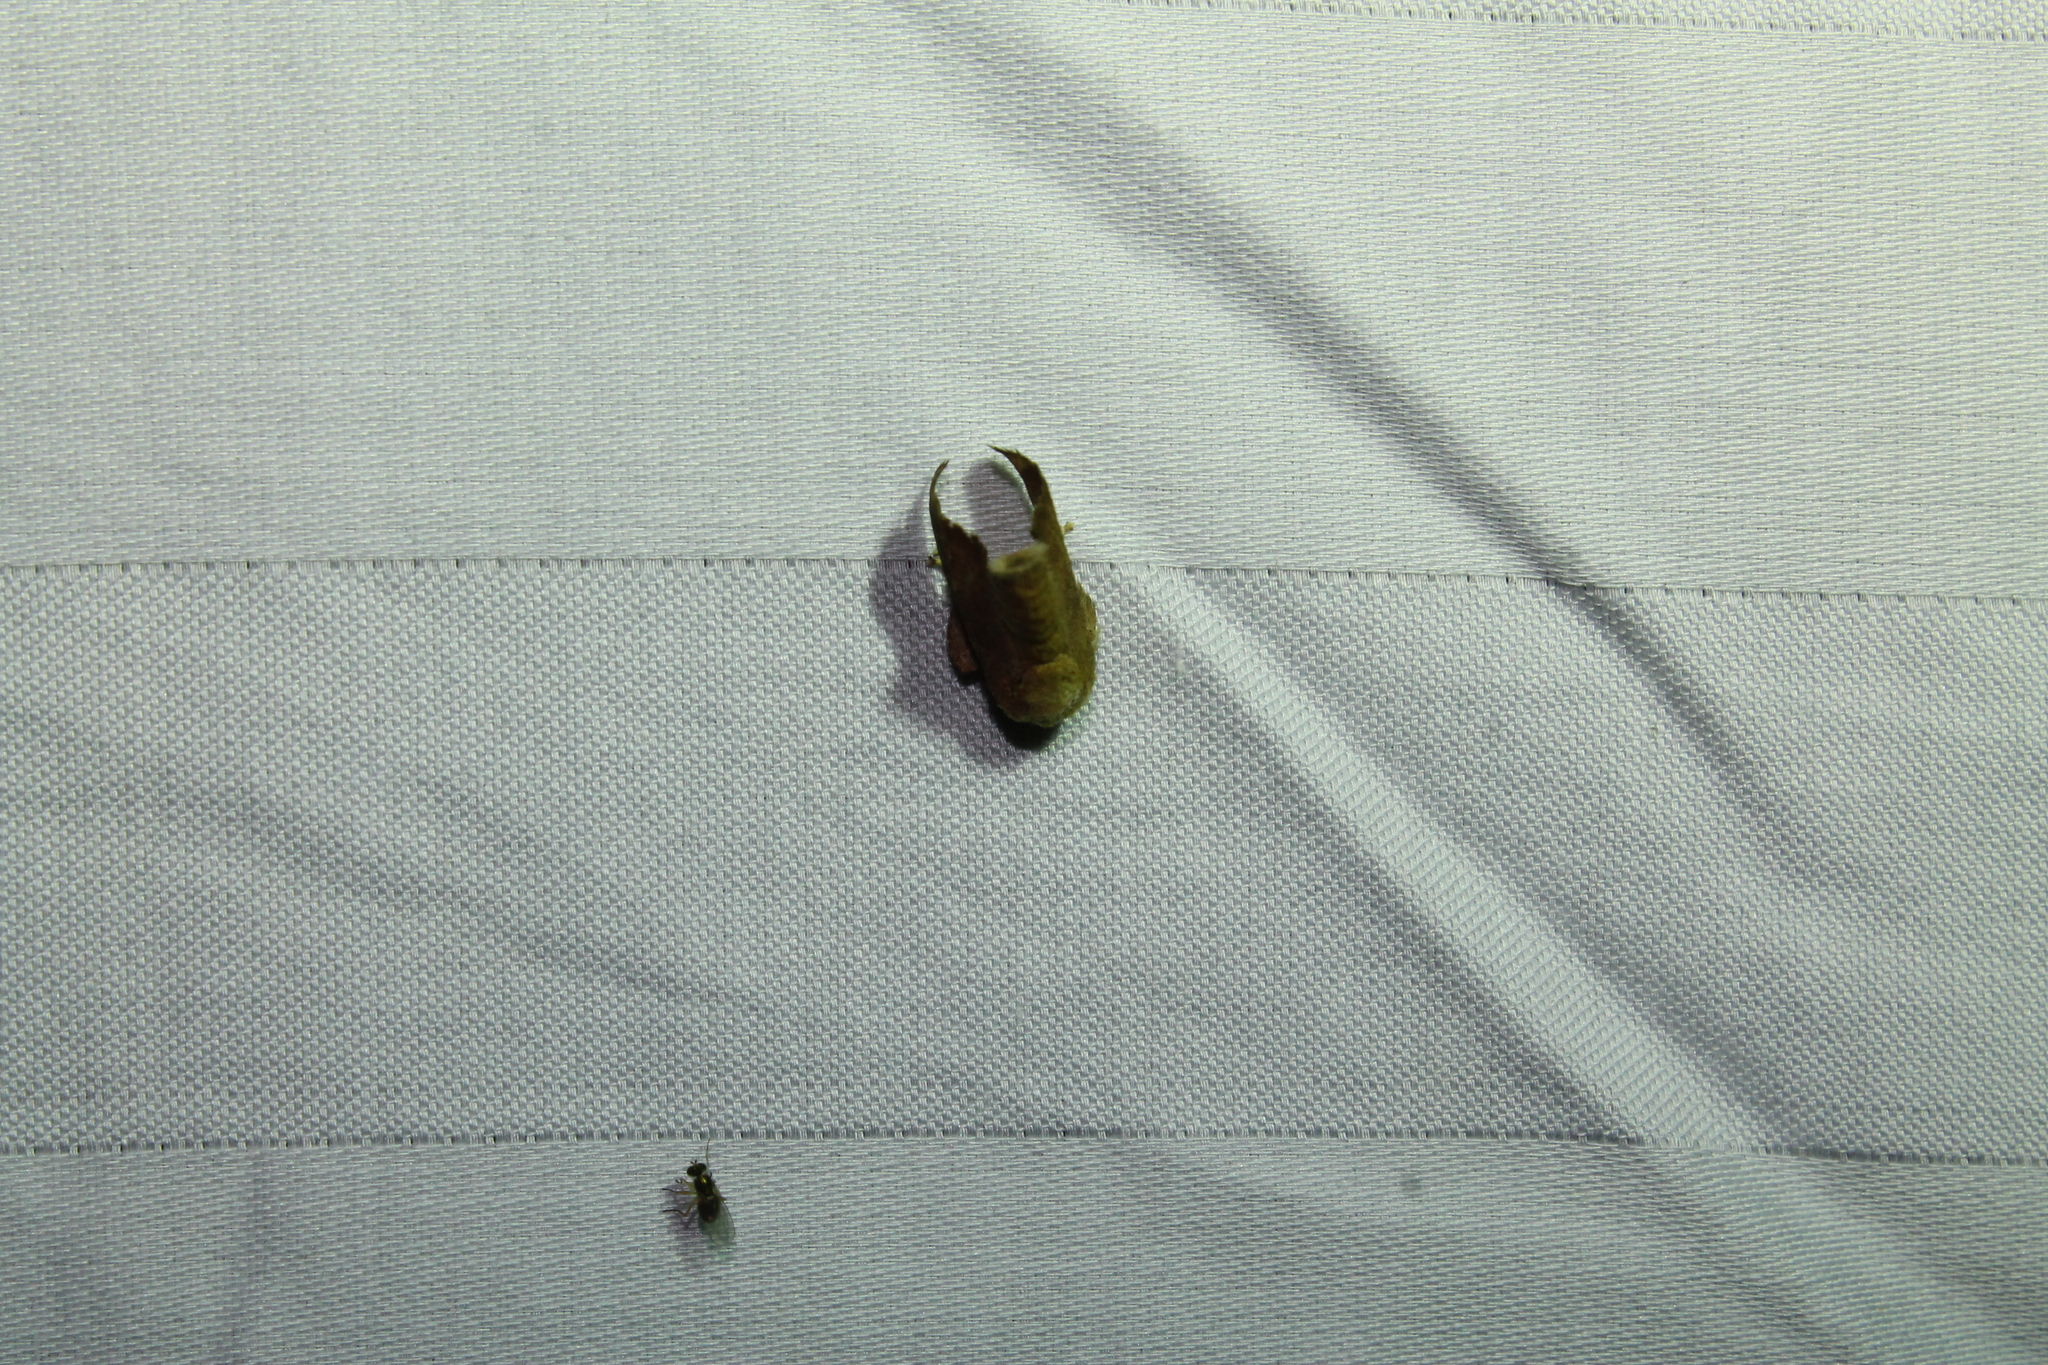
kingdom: Animalia
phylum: Arthropoda
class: Insecta
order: Lepidoptera
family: Limacodidae
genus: Isa
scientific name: Isa textula
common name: Crowned slug moth
